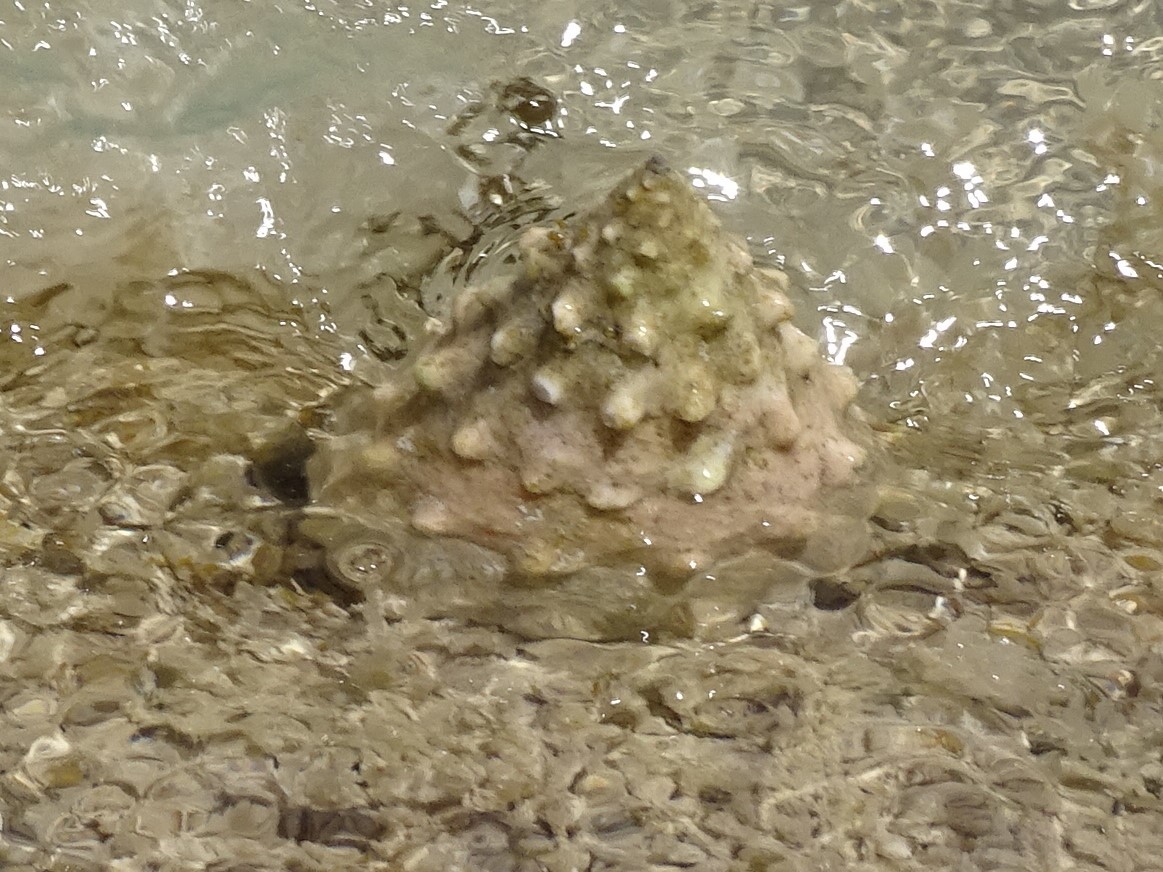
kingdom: Animalia
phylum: Mollusca
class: Gastropoda
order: Trochida
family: Tegulidae
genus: Tectus
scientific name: Tectus dentatus
